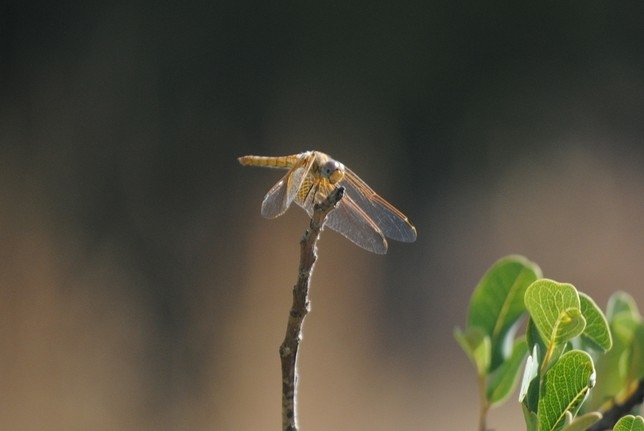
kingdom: Animalia
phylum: Arthropoda
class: Insecta
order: Odonata
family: Libellulidae
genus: Trithemis
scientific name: Trithemis kirbyi
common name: Kirby's dropwing
